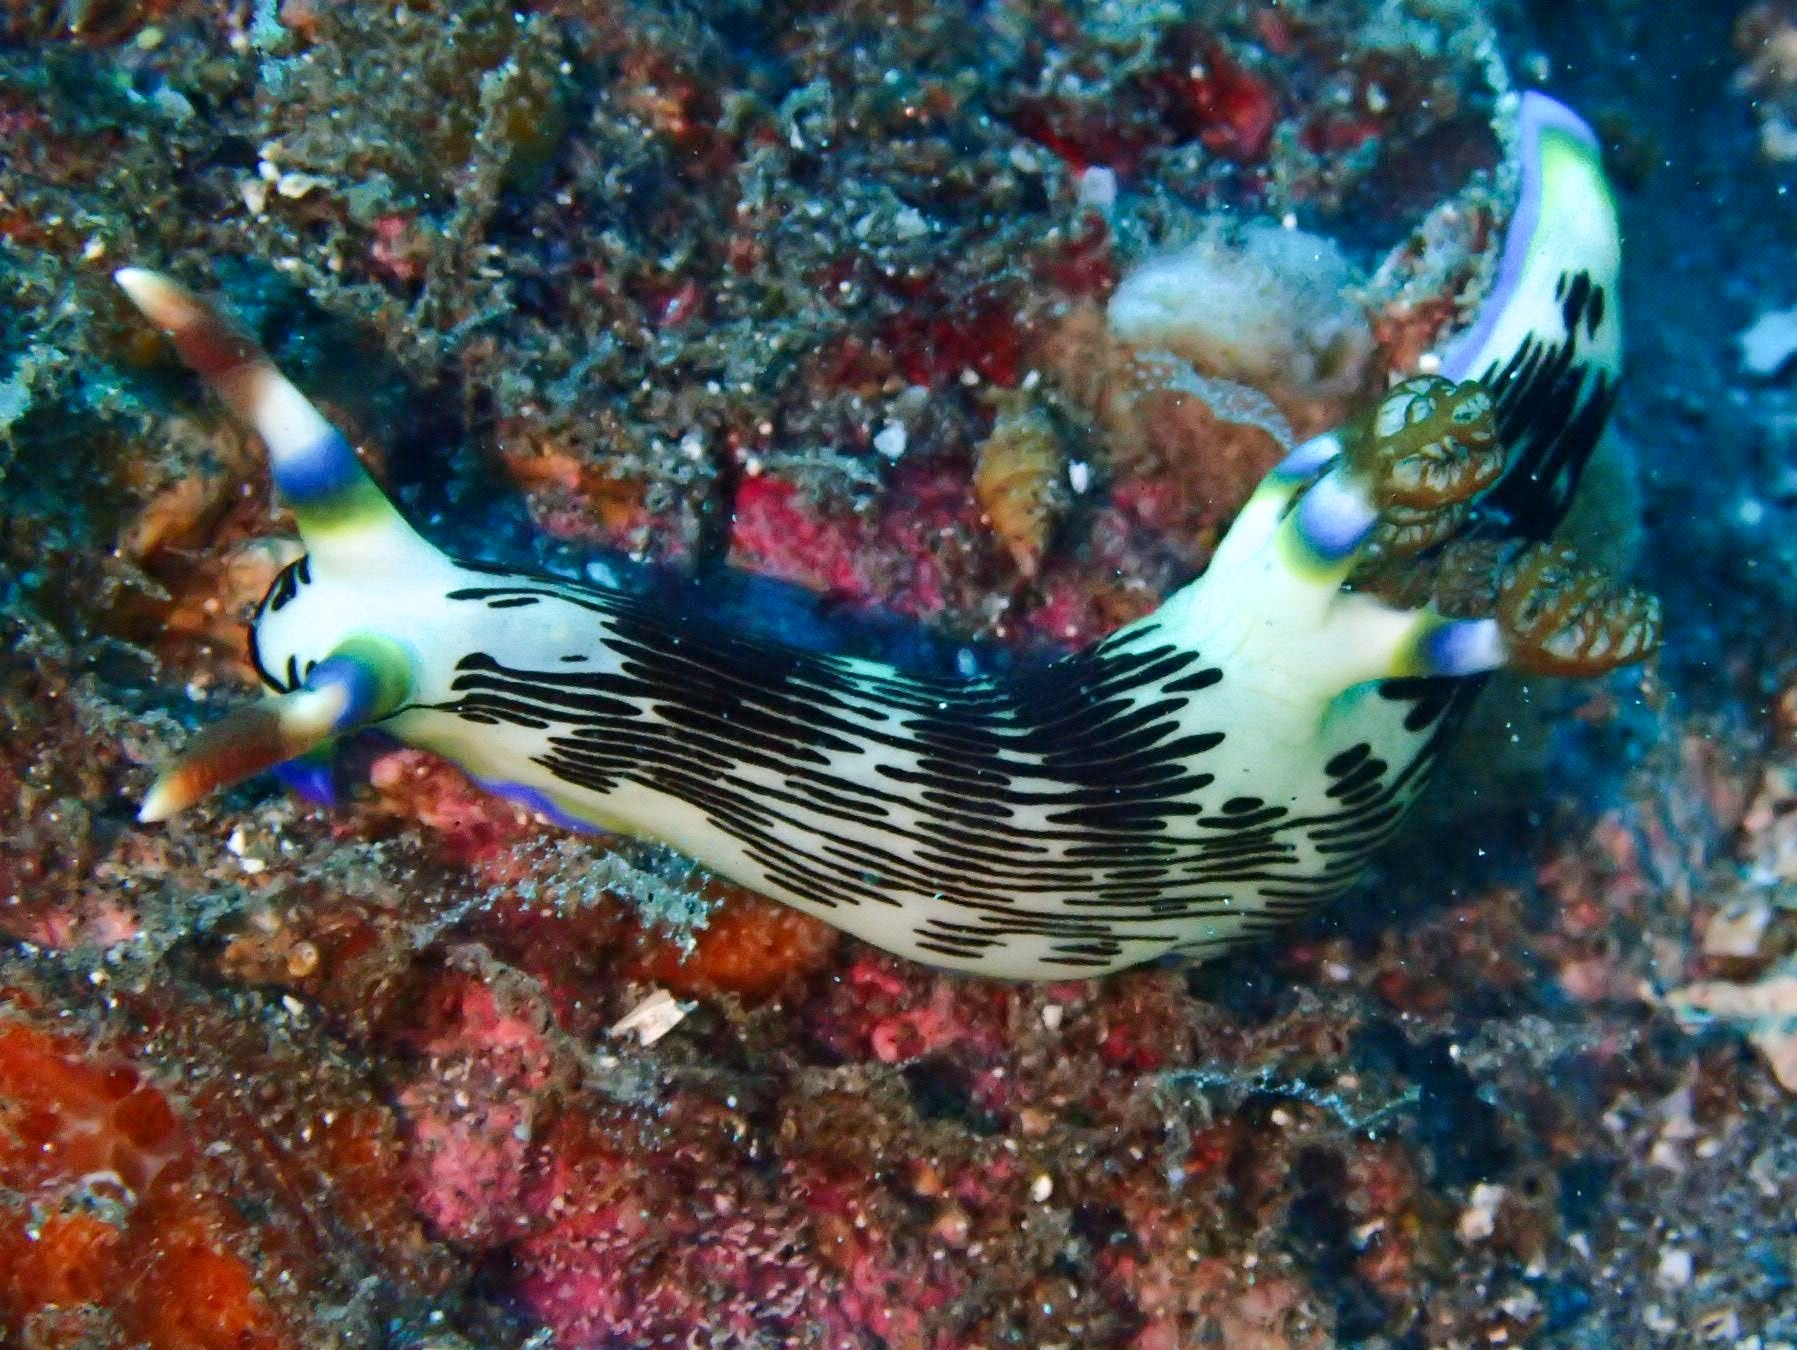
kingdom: Animalia
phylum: Mollusca
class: Gastropoda
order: Nudibranchia
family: Polyceridae
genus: Nembrotha
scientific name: Nembrotha lineolata
